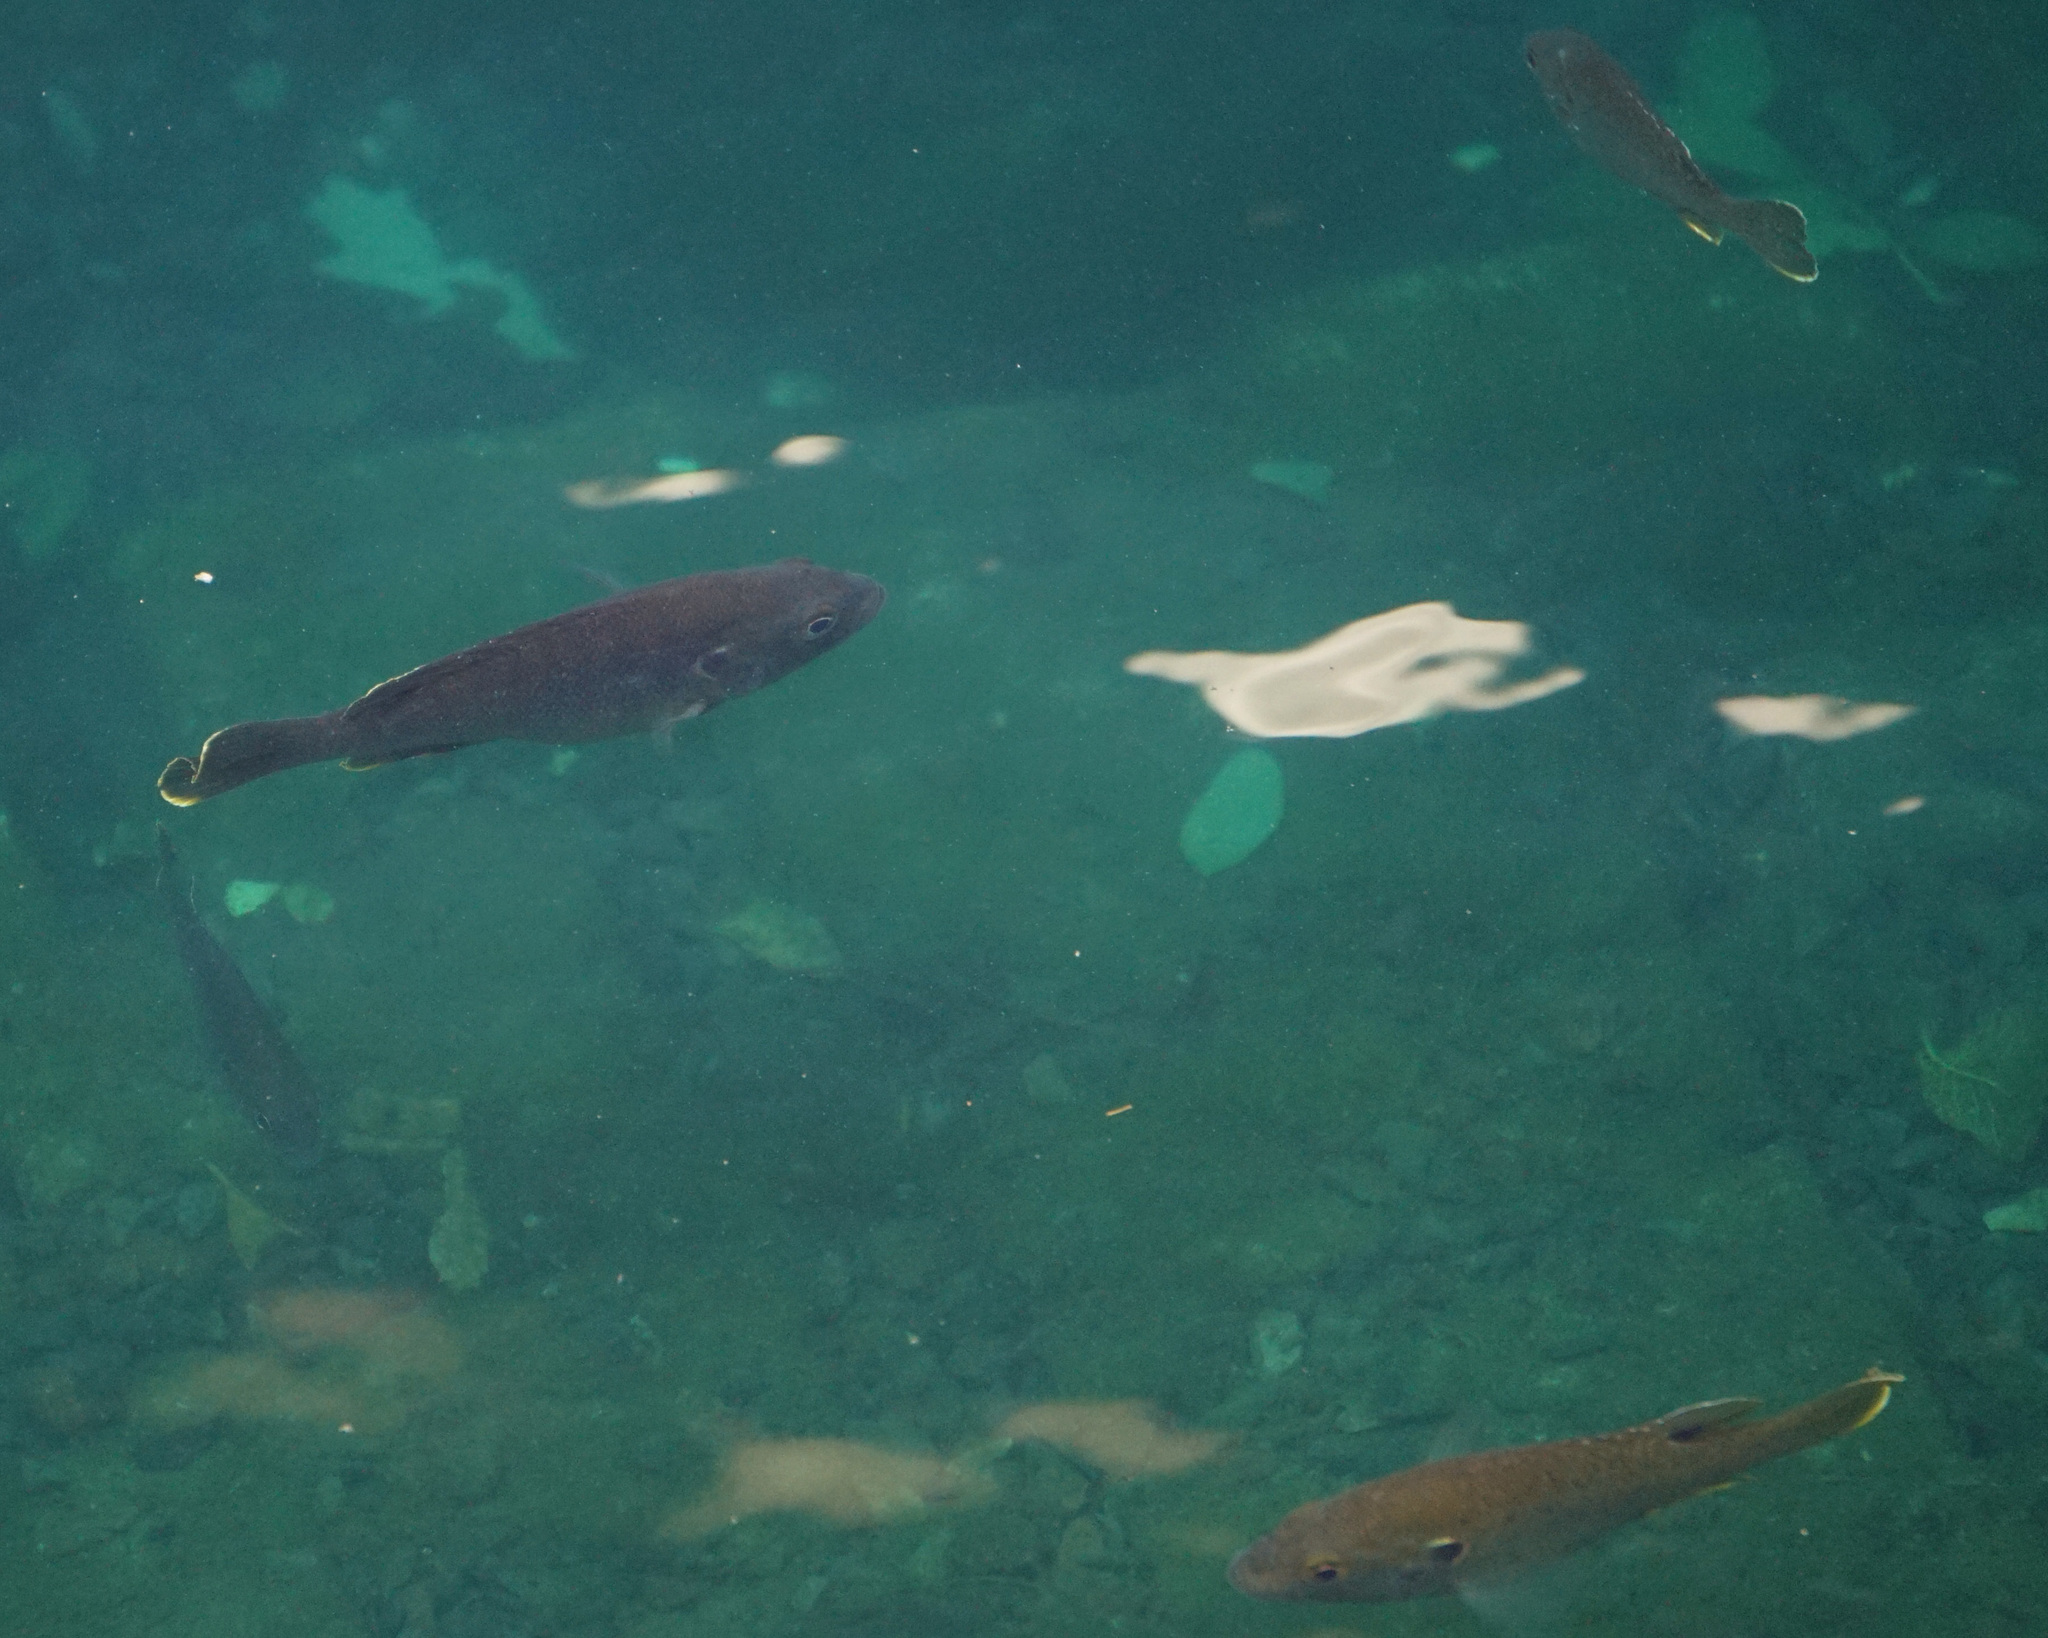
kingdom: Animalia
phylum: Chordata
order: Perciformes
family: Centrarchidae
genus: Lepomis
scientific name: Lepomis cyanellus
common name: Green sunfish
